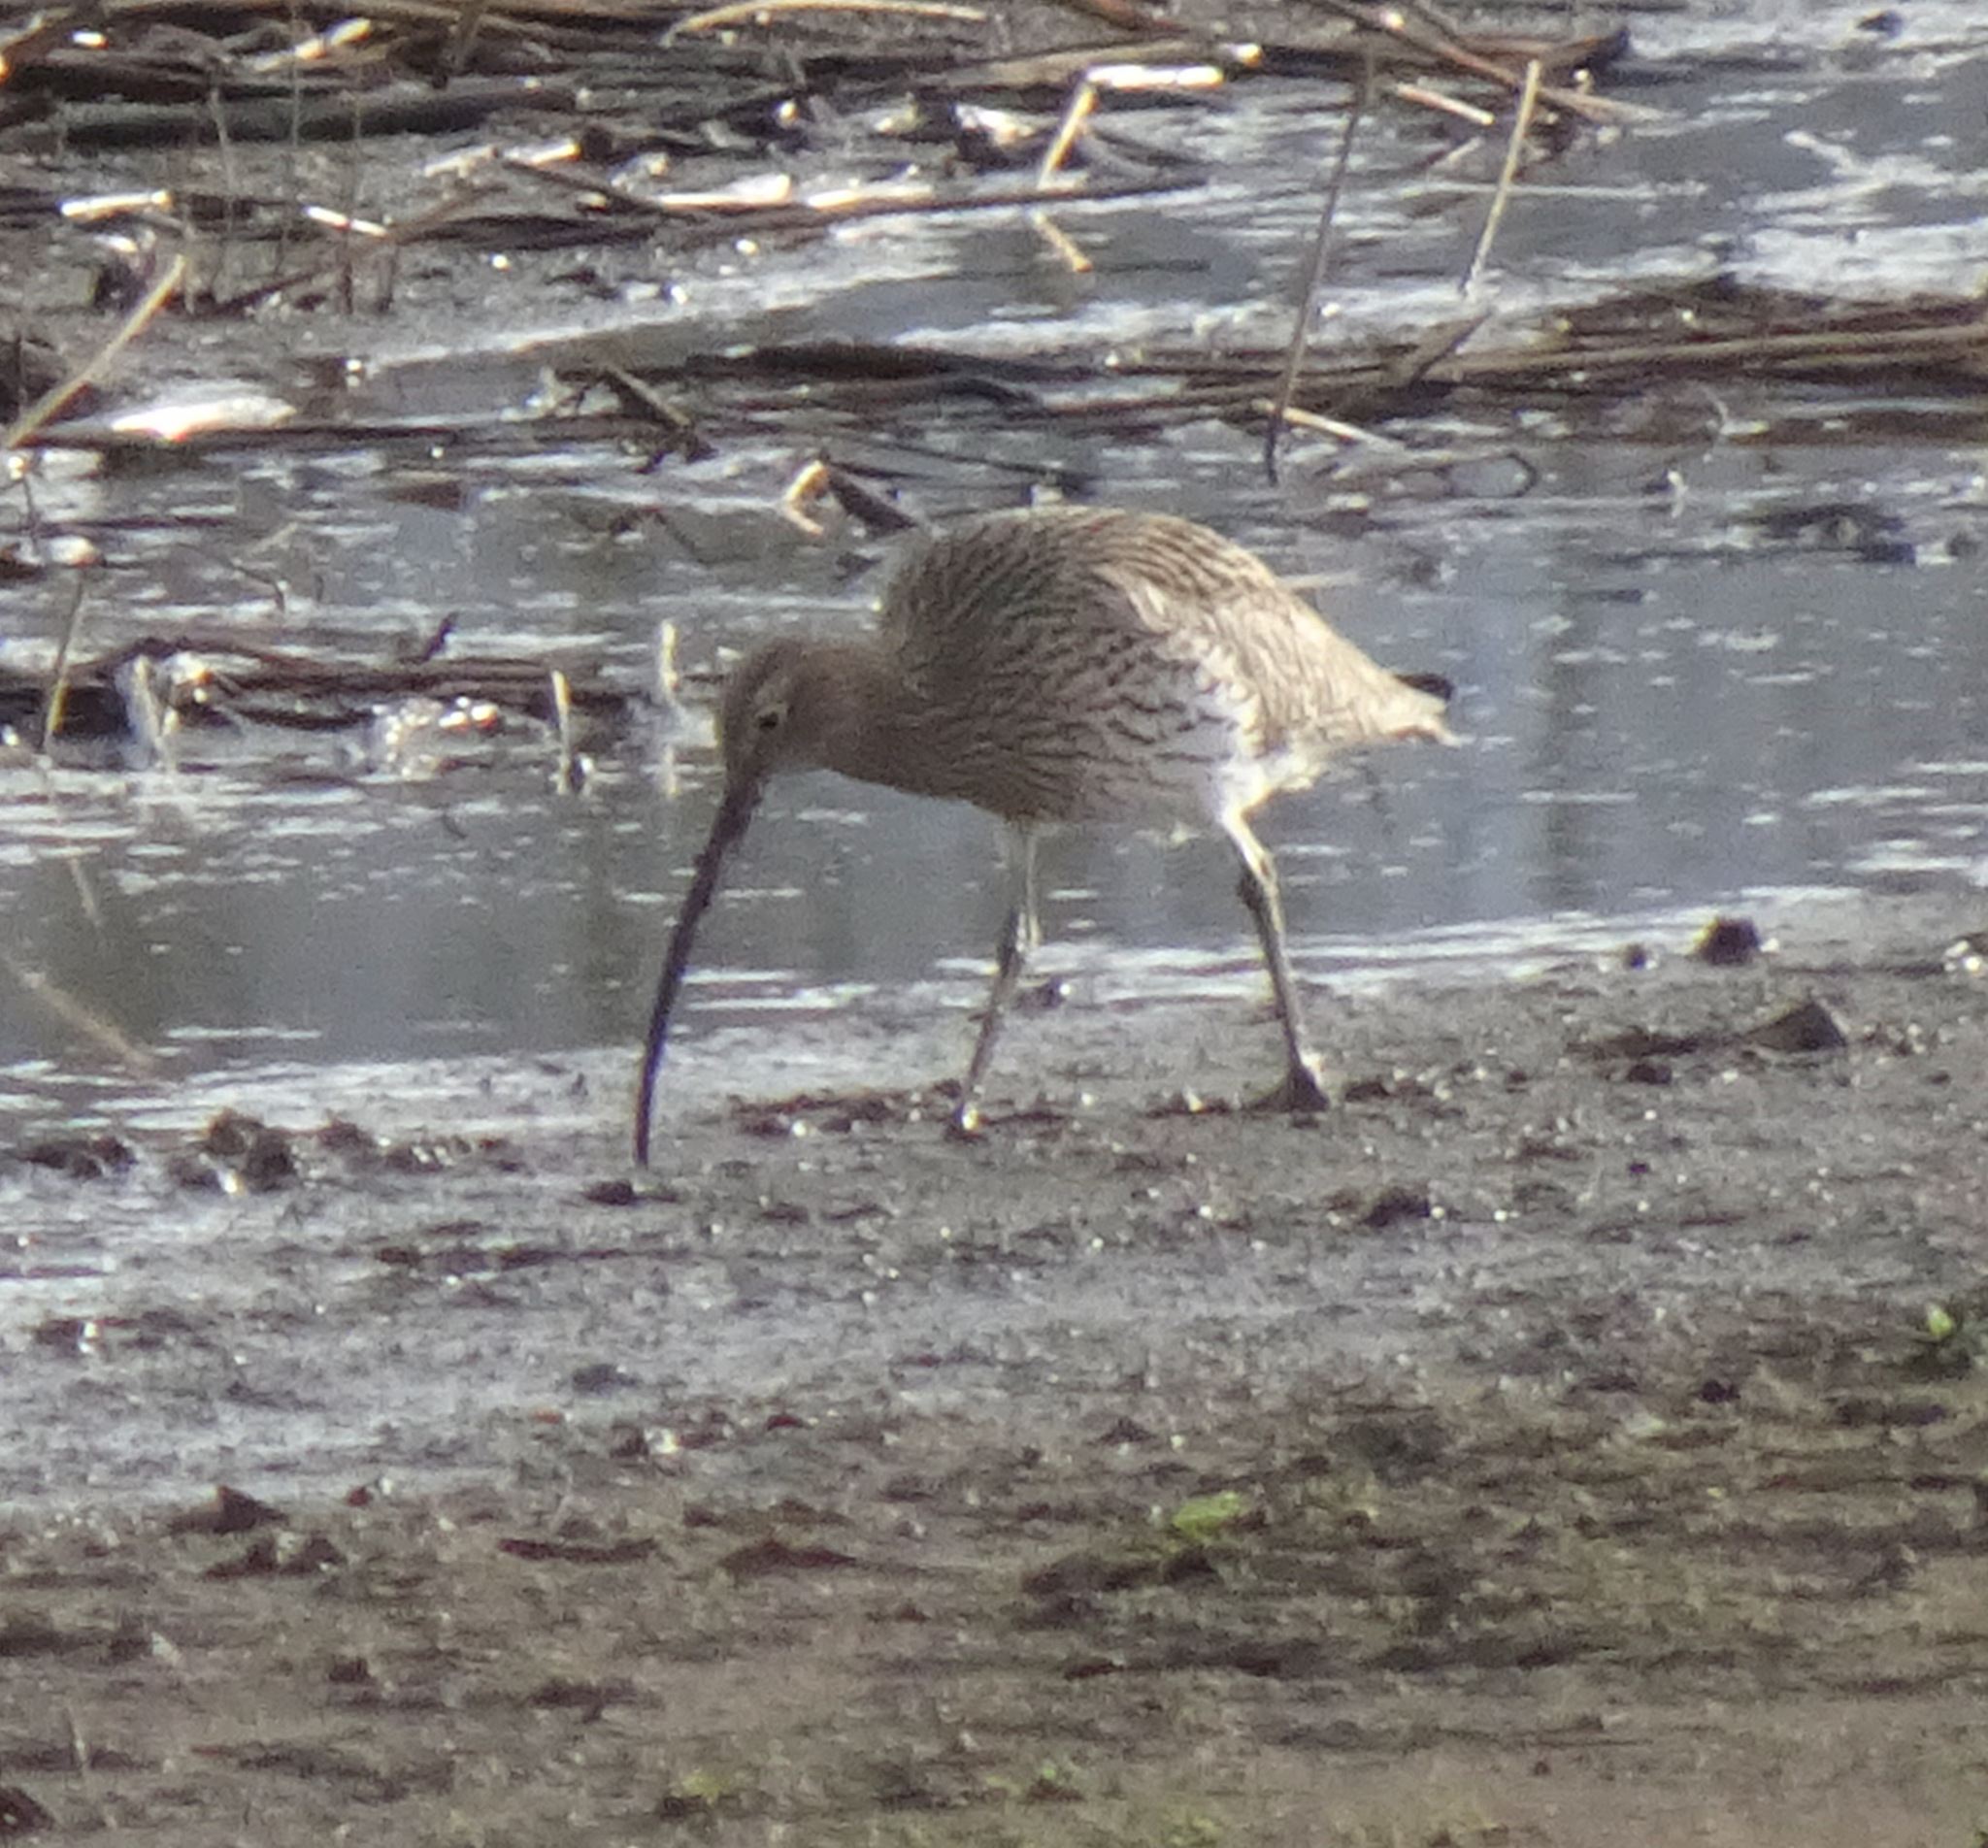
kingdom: Animalia
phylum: Chordata
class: Aves
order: Charadriiformes
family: Scolopacidae
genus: Numenius
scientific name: Numenius arquata
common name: Eurasian curlew
